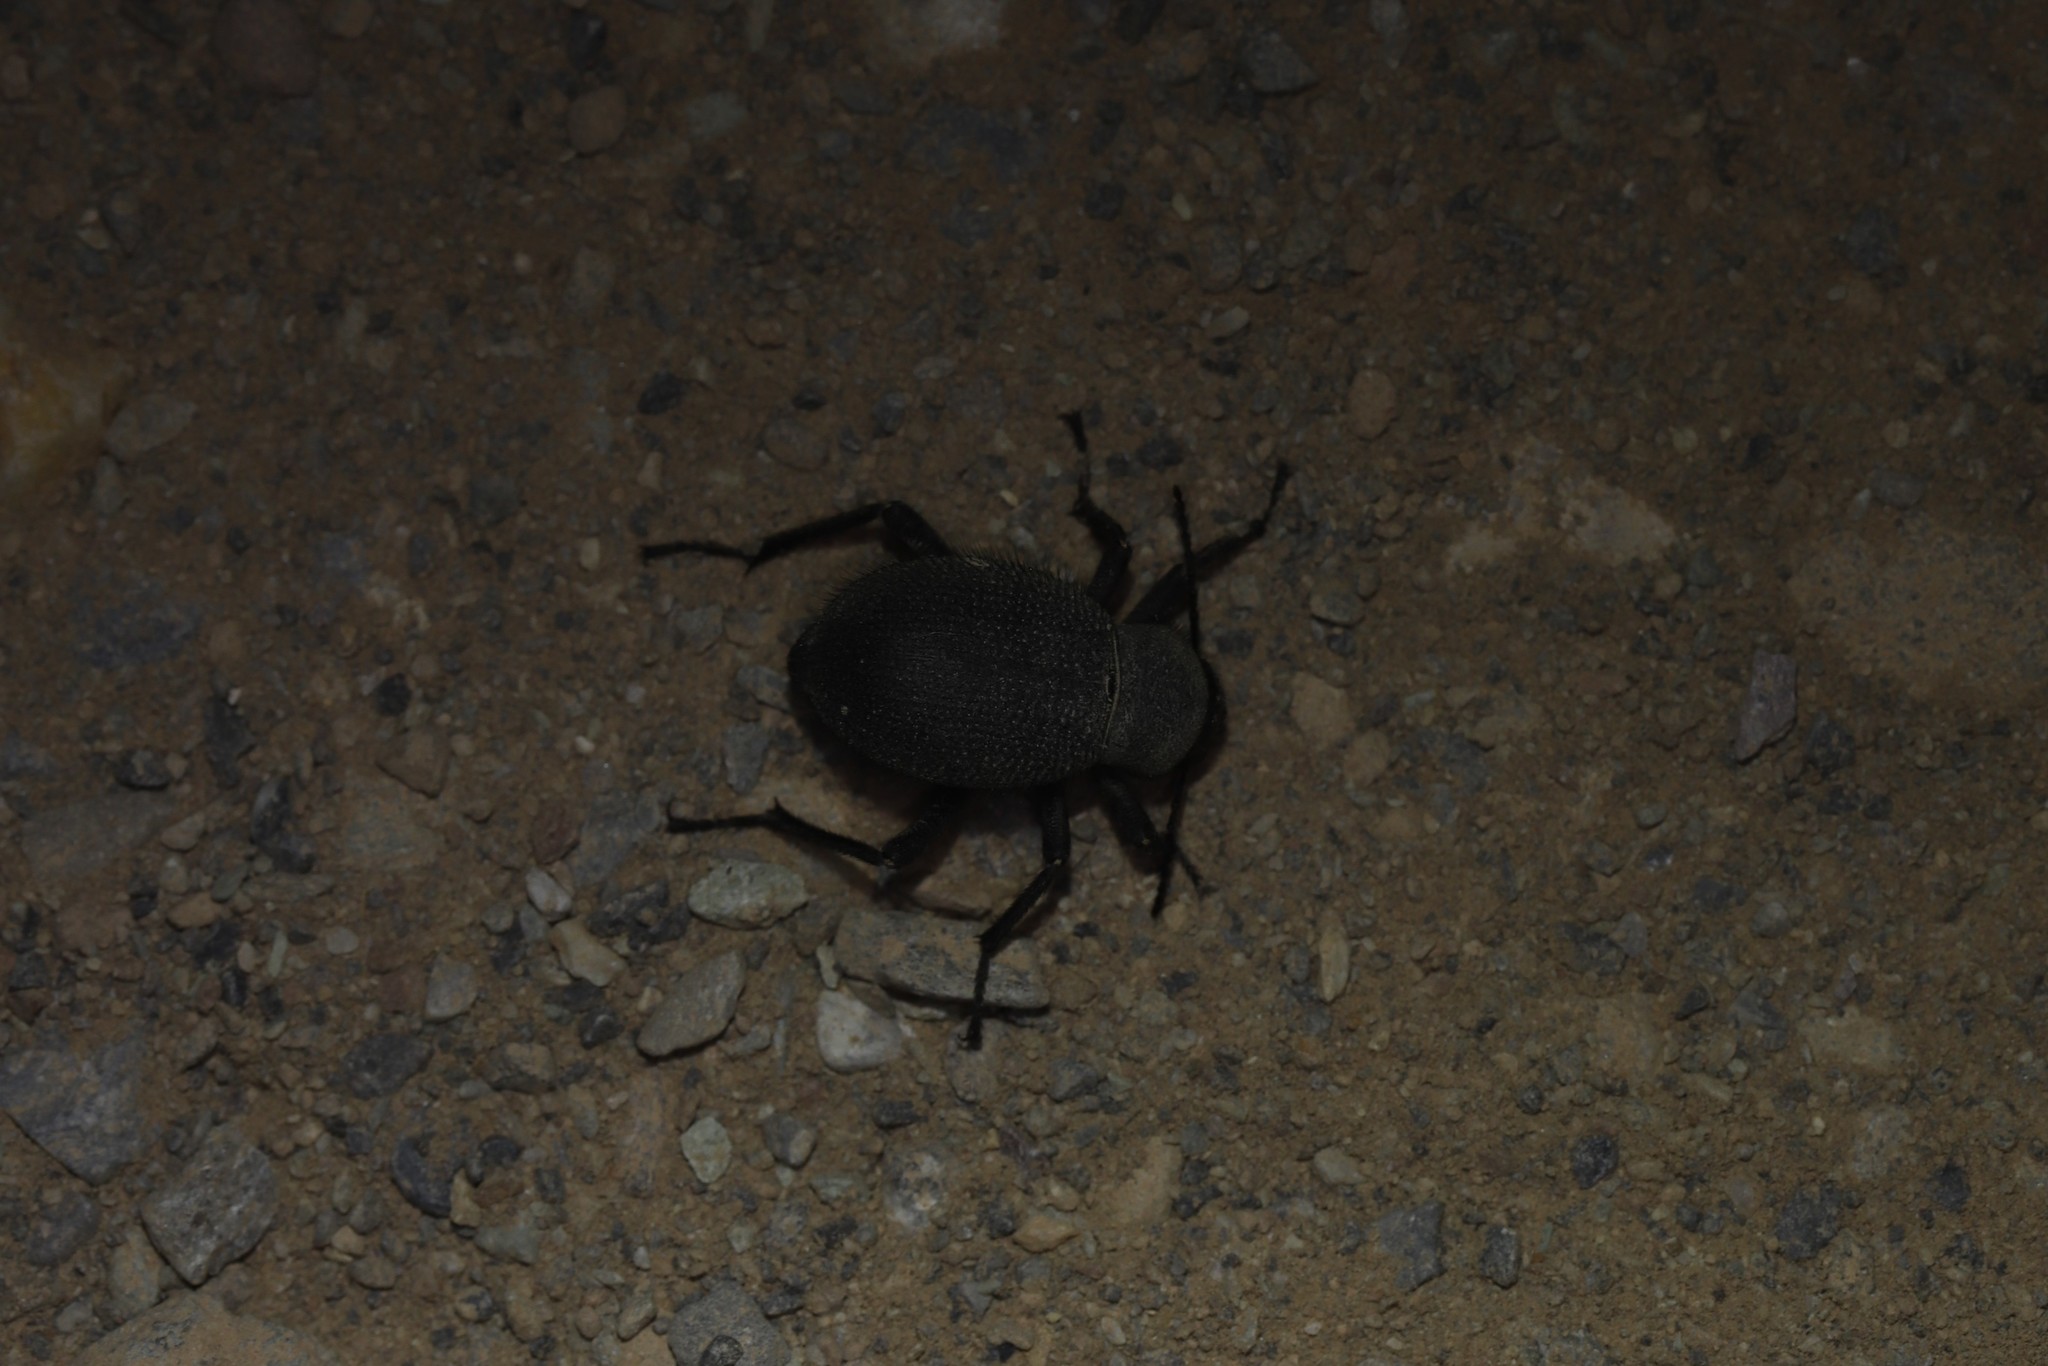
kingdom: Animalia
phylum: Arthropoda
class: Insecta
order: Coleoptera
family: Tenebrionidae
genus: Trachyderma
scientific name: Trachyderma philistina
